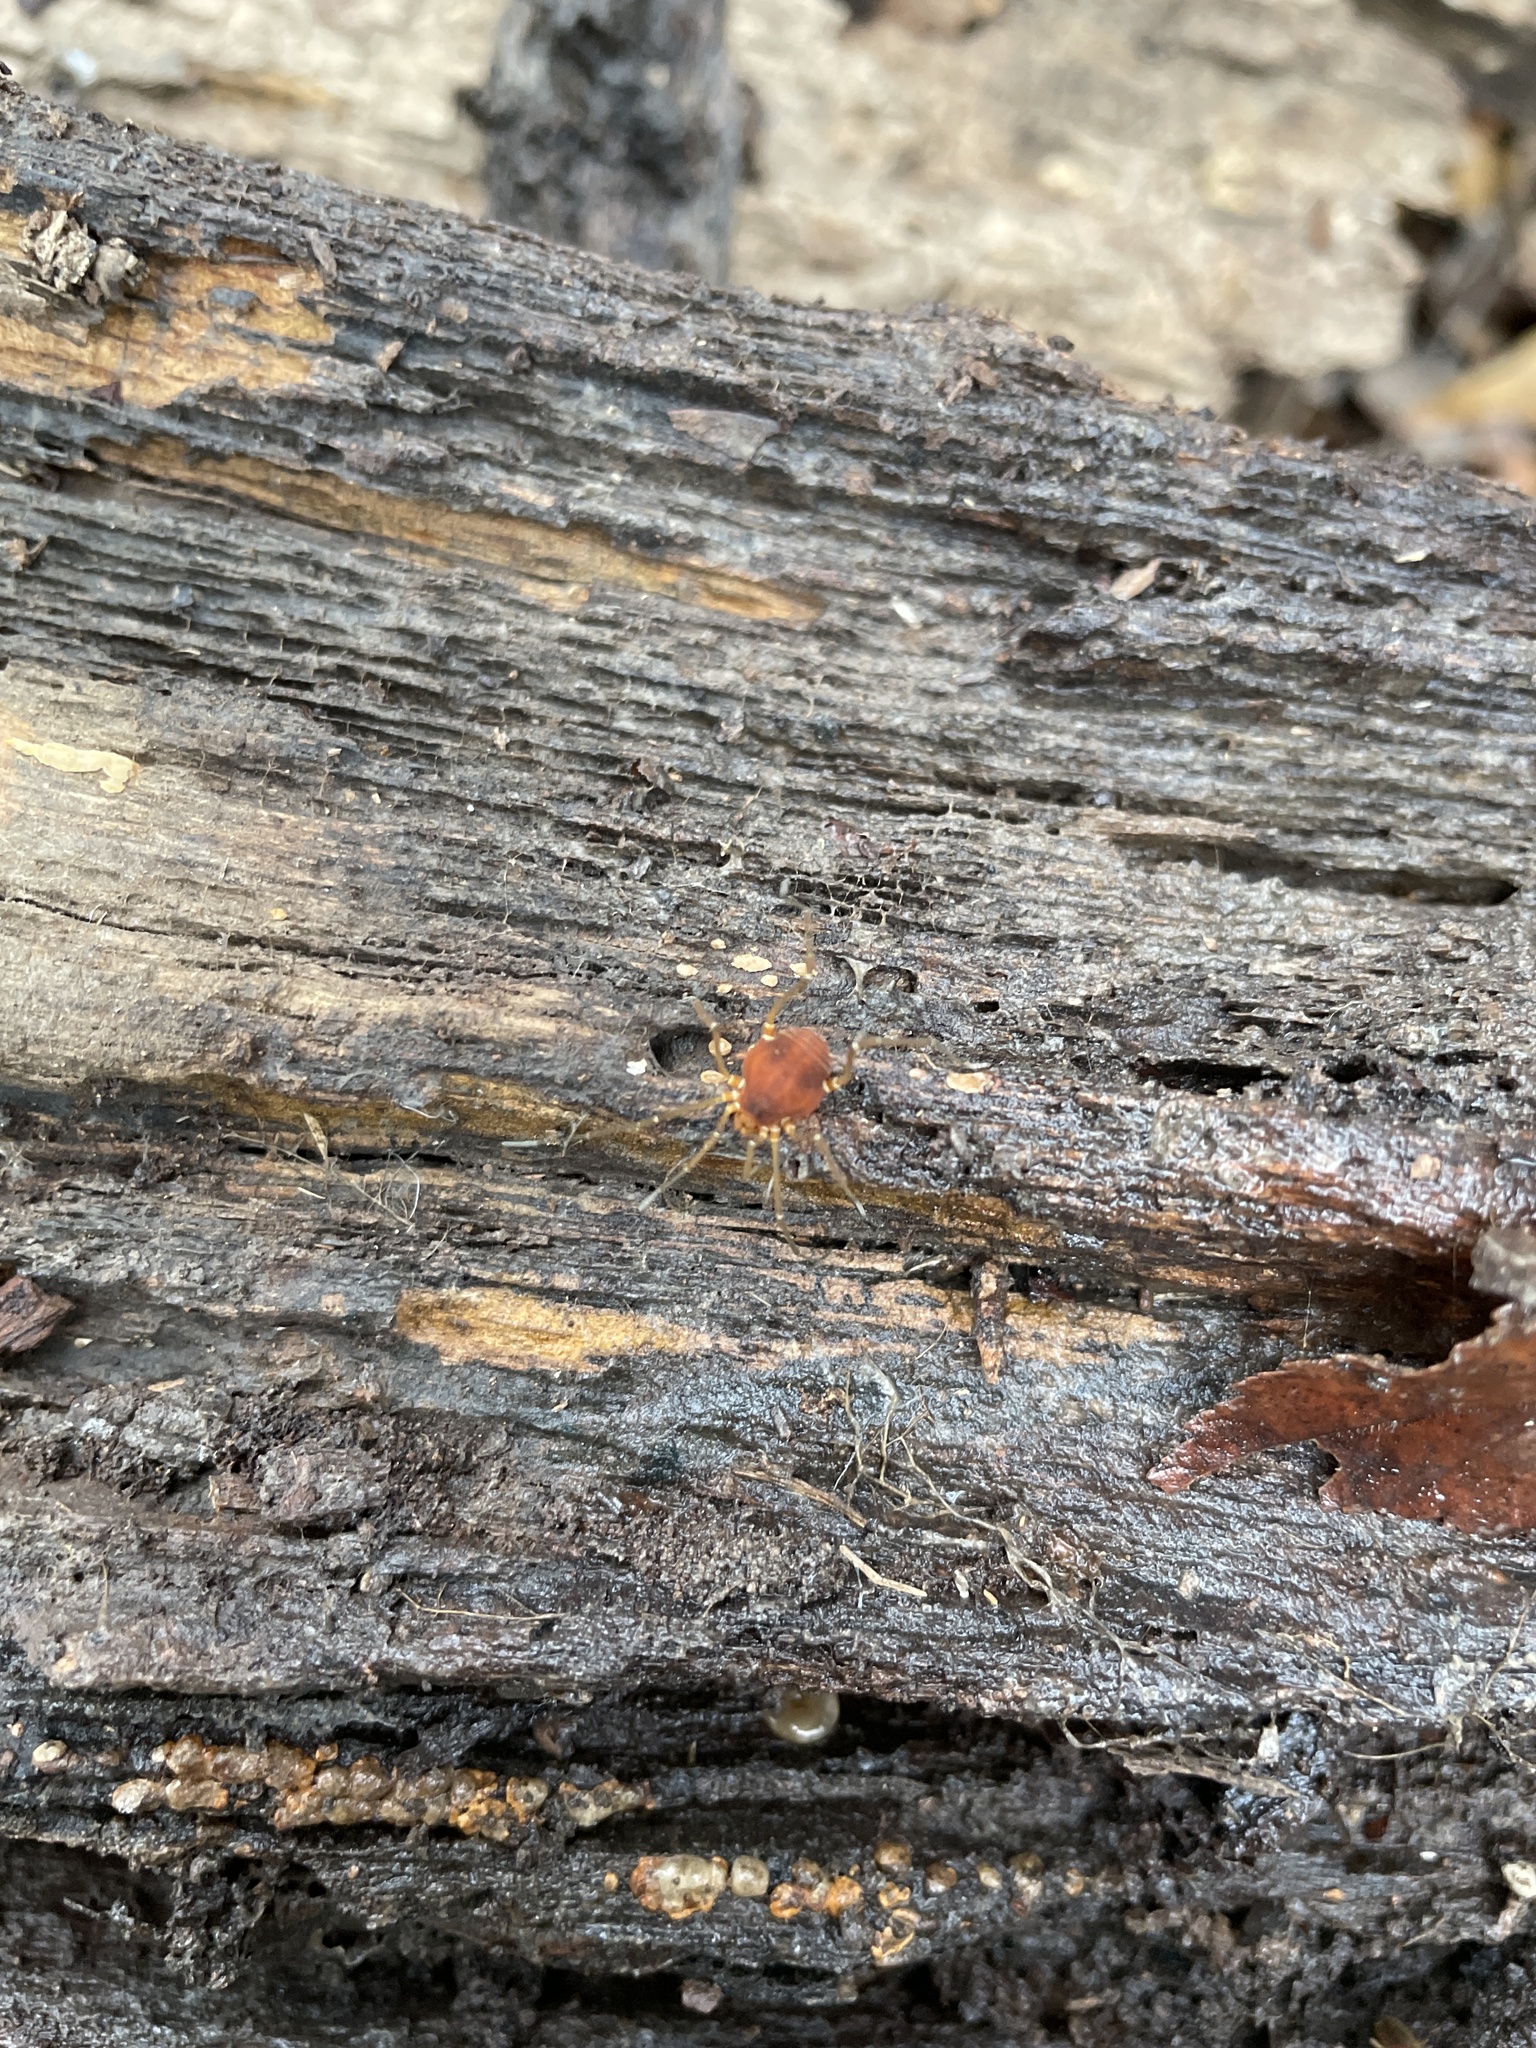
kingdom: Animalia
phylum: Arthropoda
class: Arachnida
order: Opiliones
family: Cosmetidae
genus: Libitioides
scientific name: Libitioides sayi
